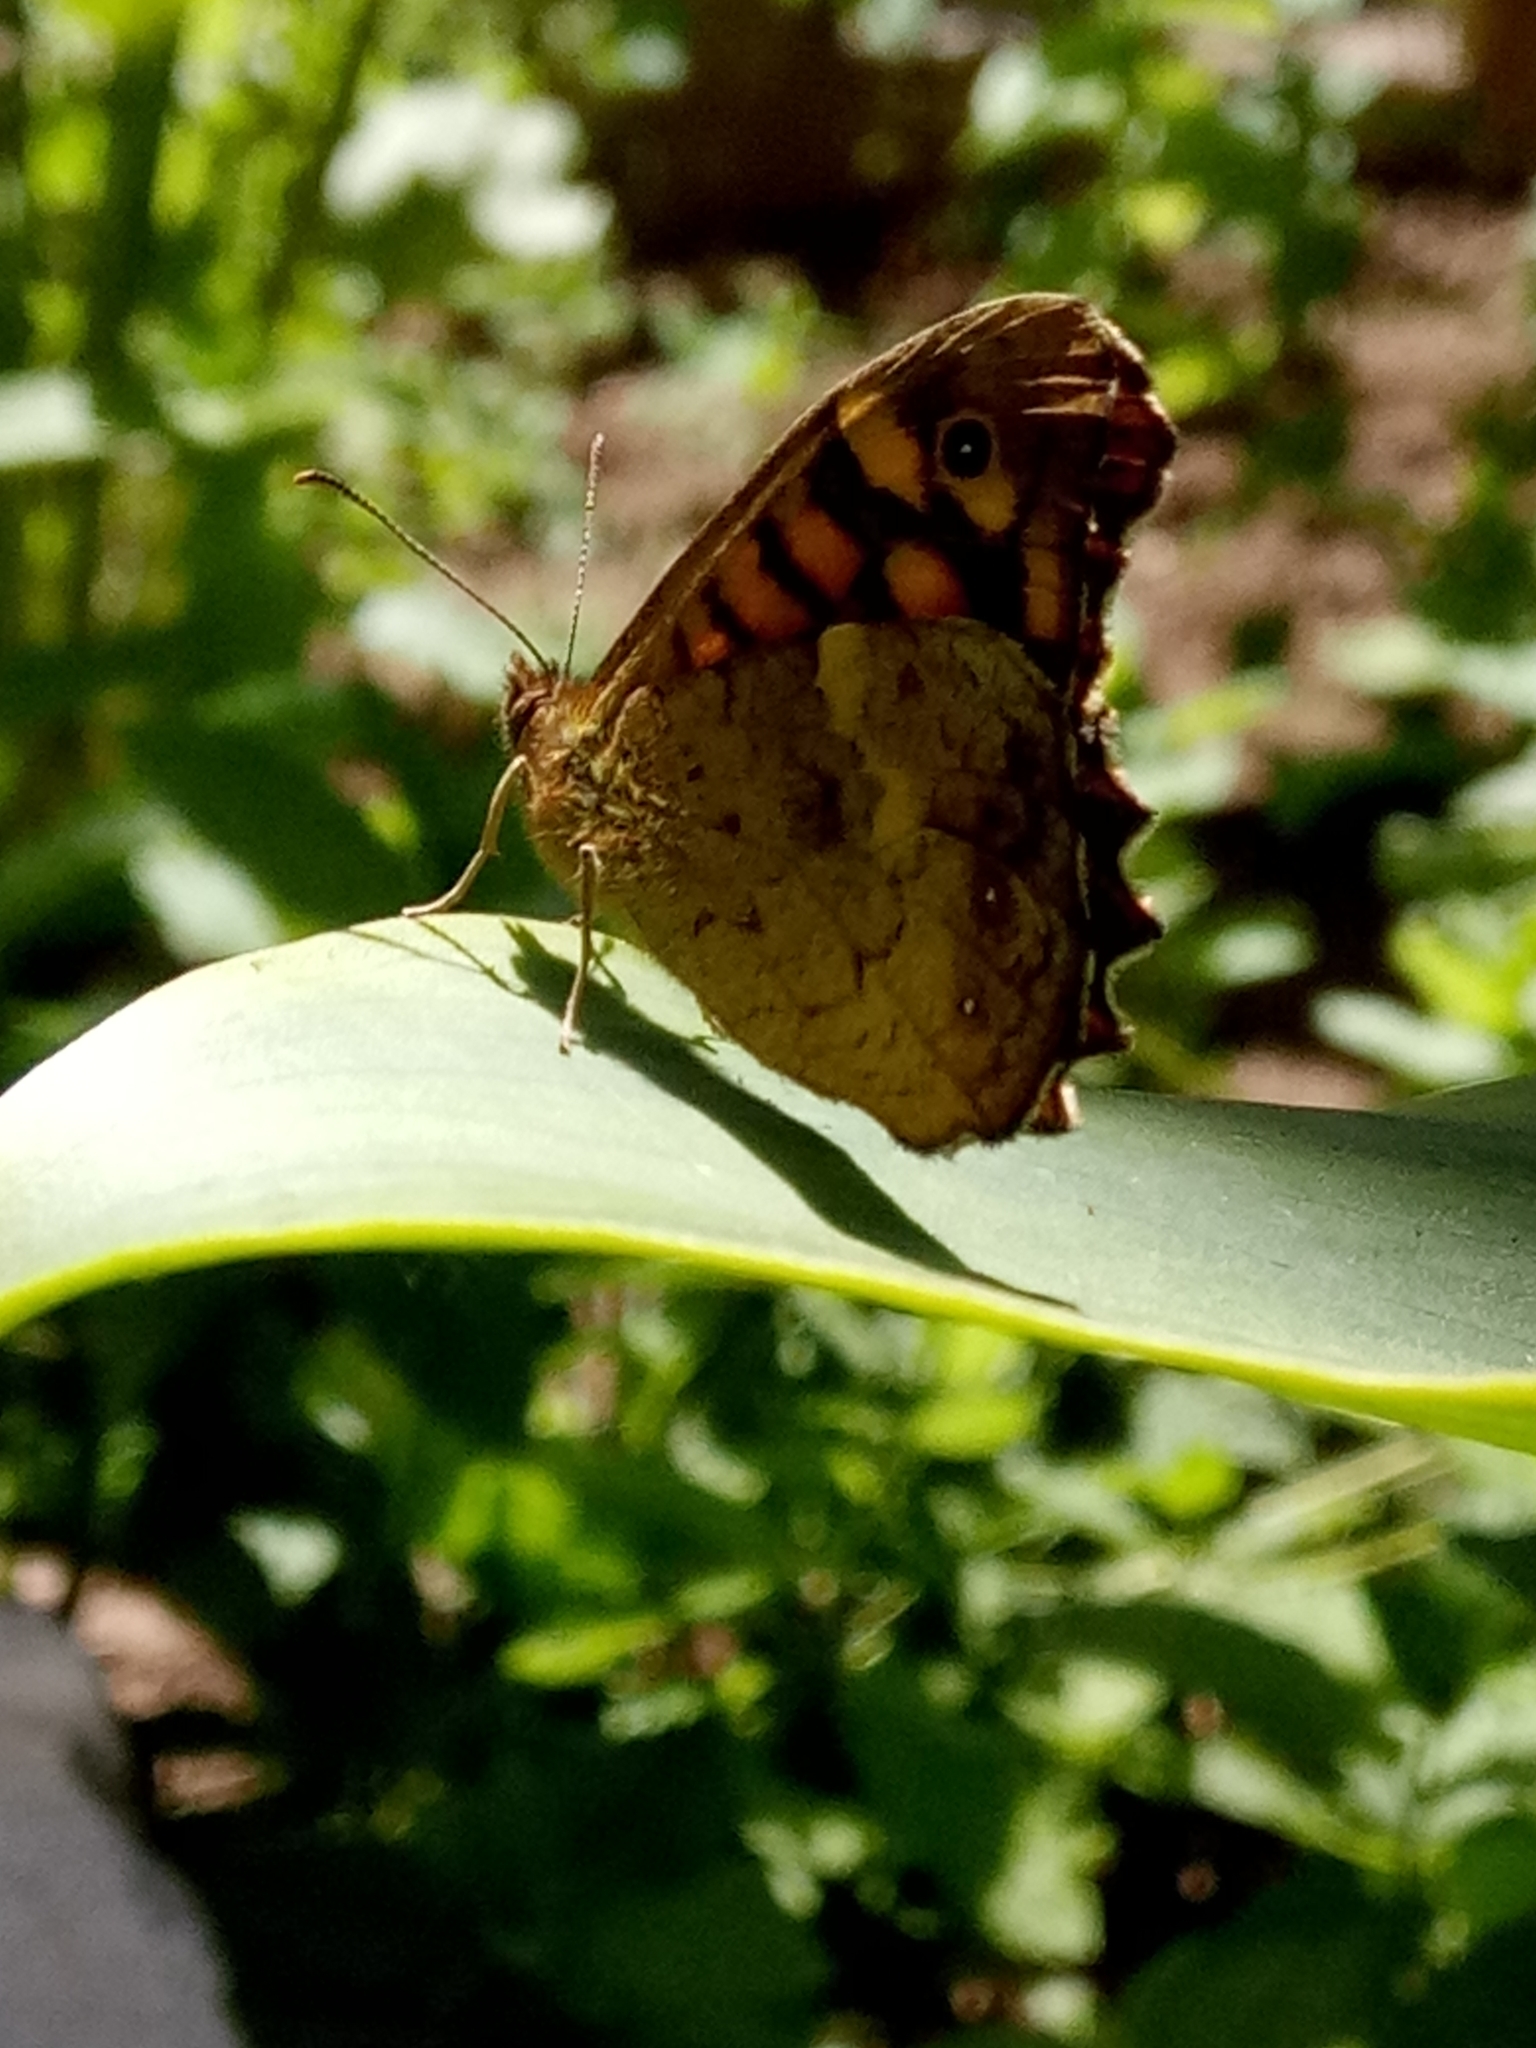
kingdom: Animalia
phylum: Arthropoda
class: Insecta
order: Lepidoptera
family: Nymphalidae
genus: Pararge
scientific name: Pararge aegeria
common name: Speckled wood
